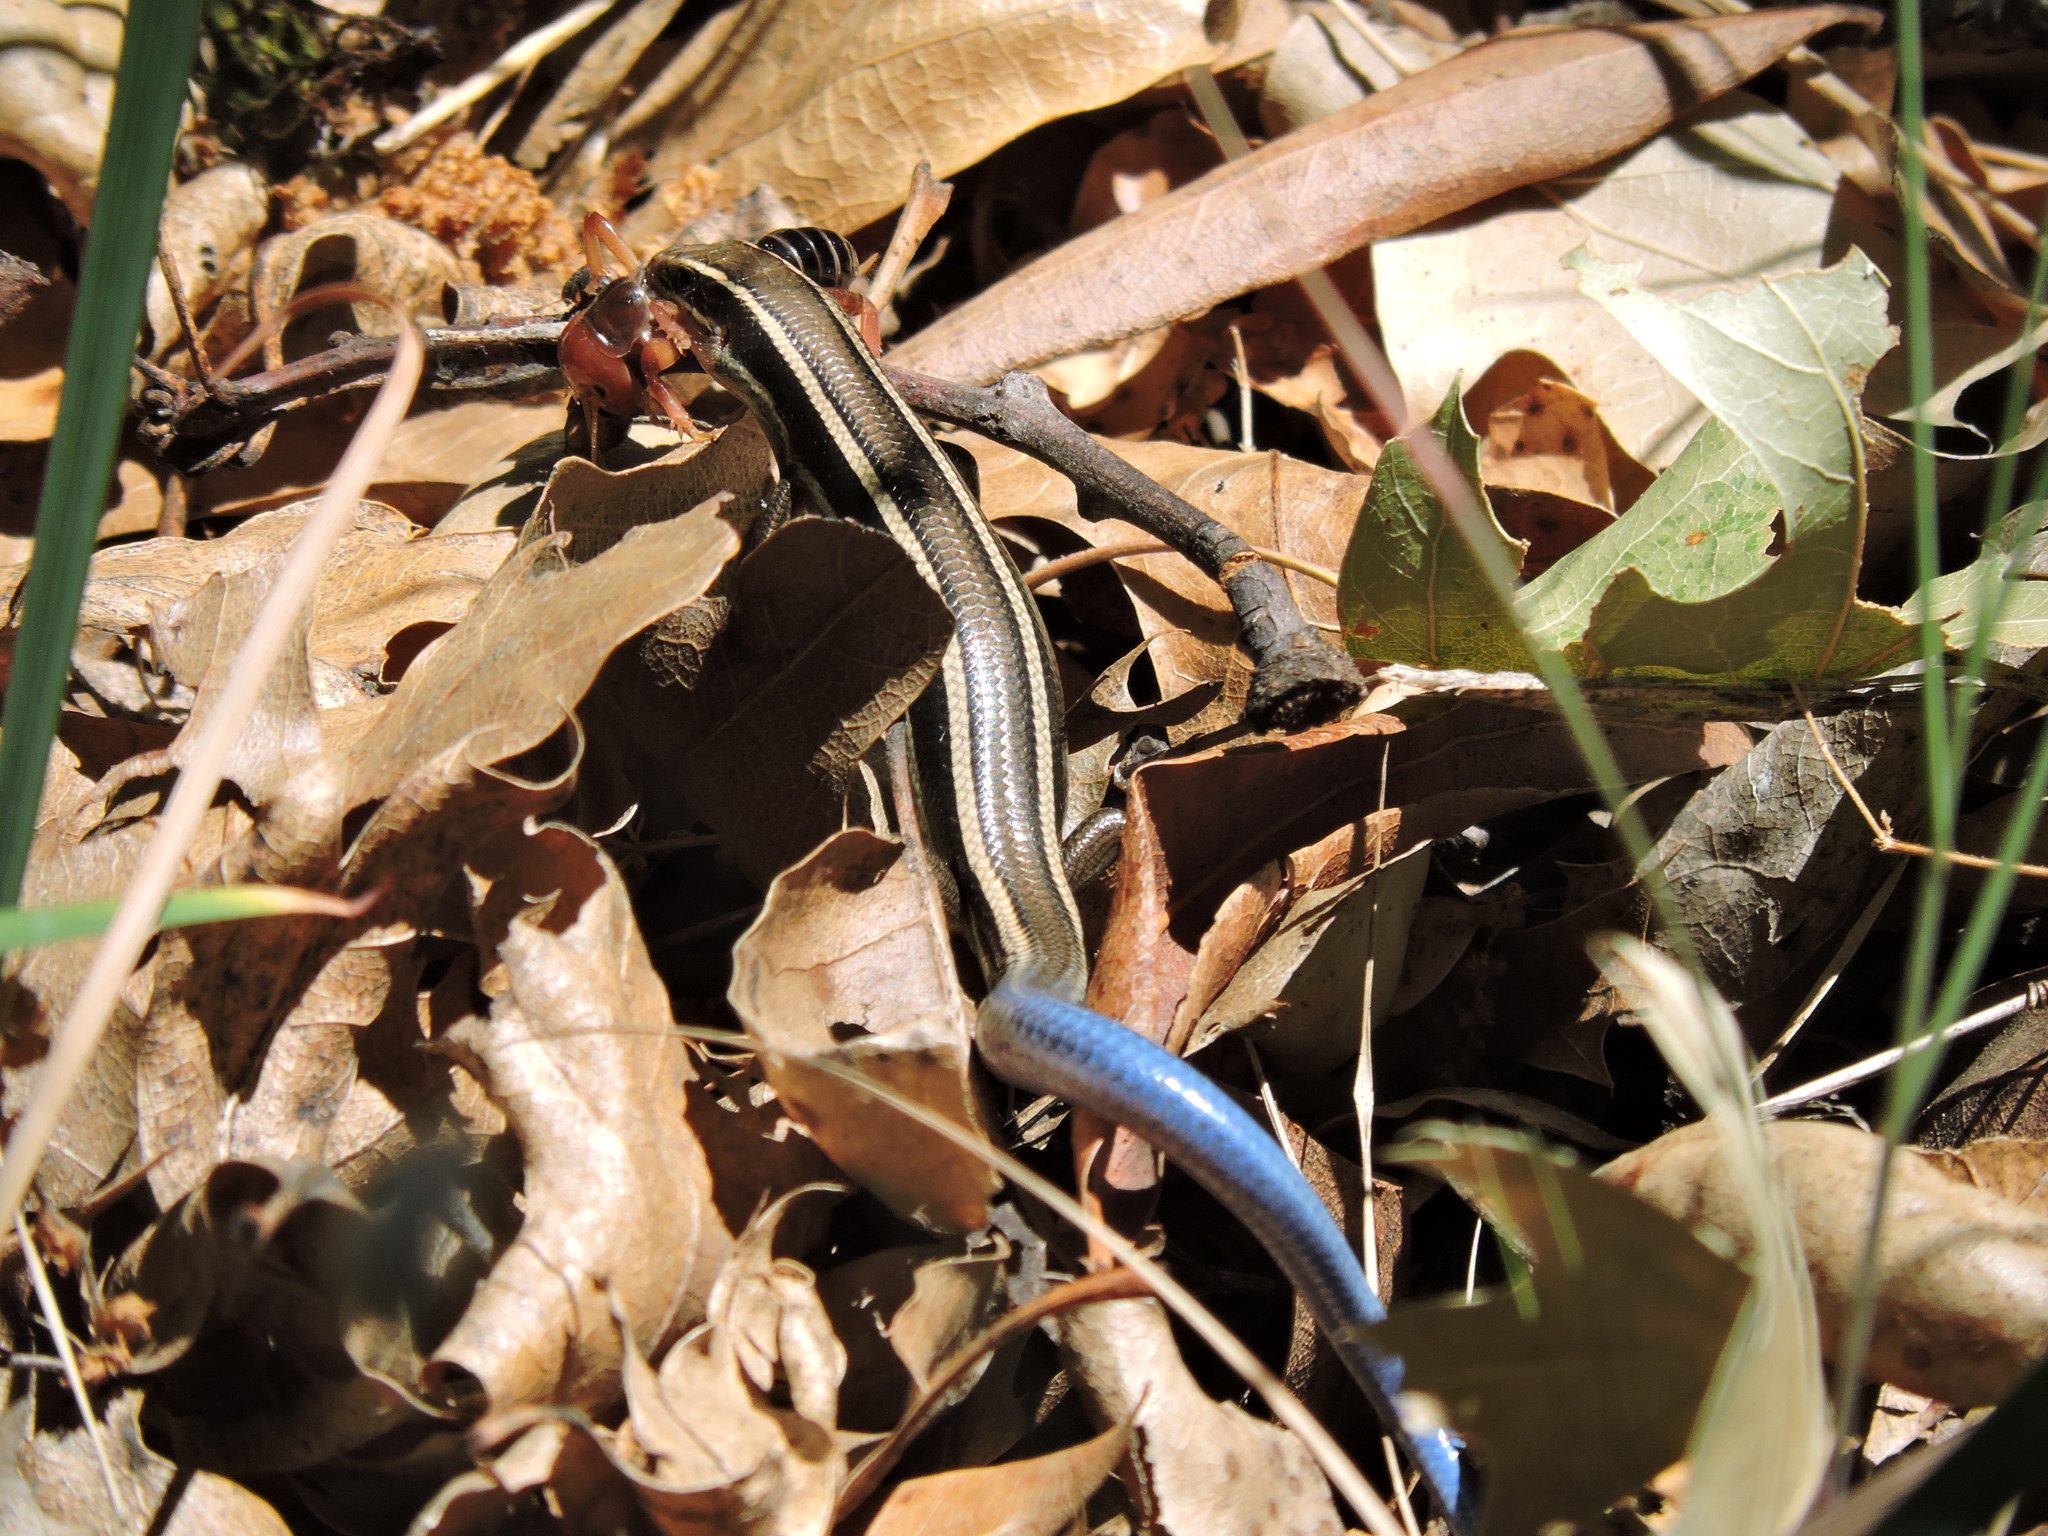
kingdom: Animalia
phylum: Chordata
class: Squamata
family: Scincidae
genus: Plestiodon
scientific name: Plestiodon skiltonianus
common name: Coronado island skink [interparietalis]
